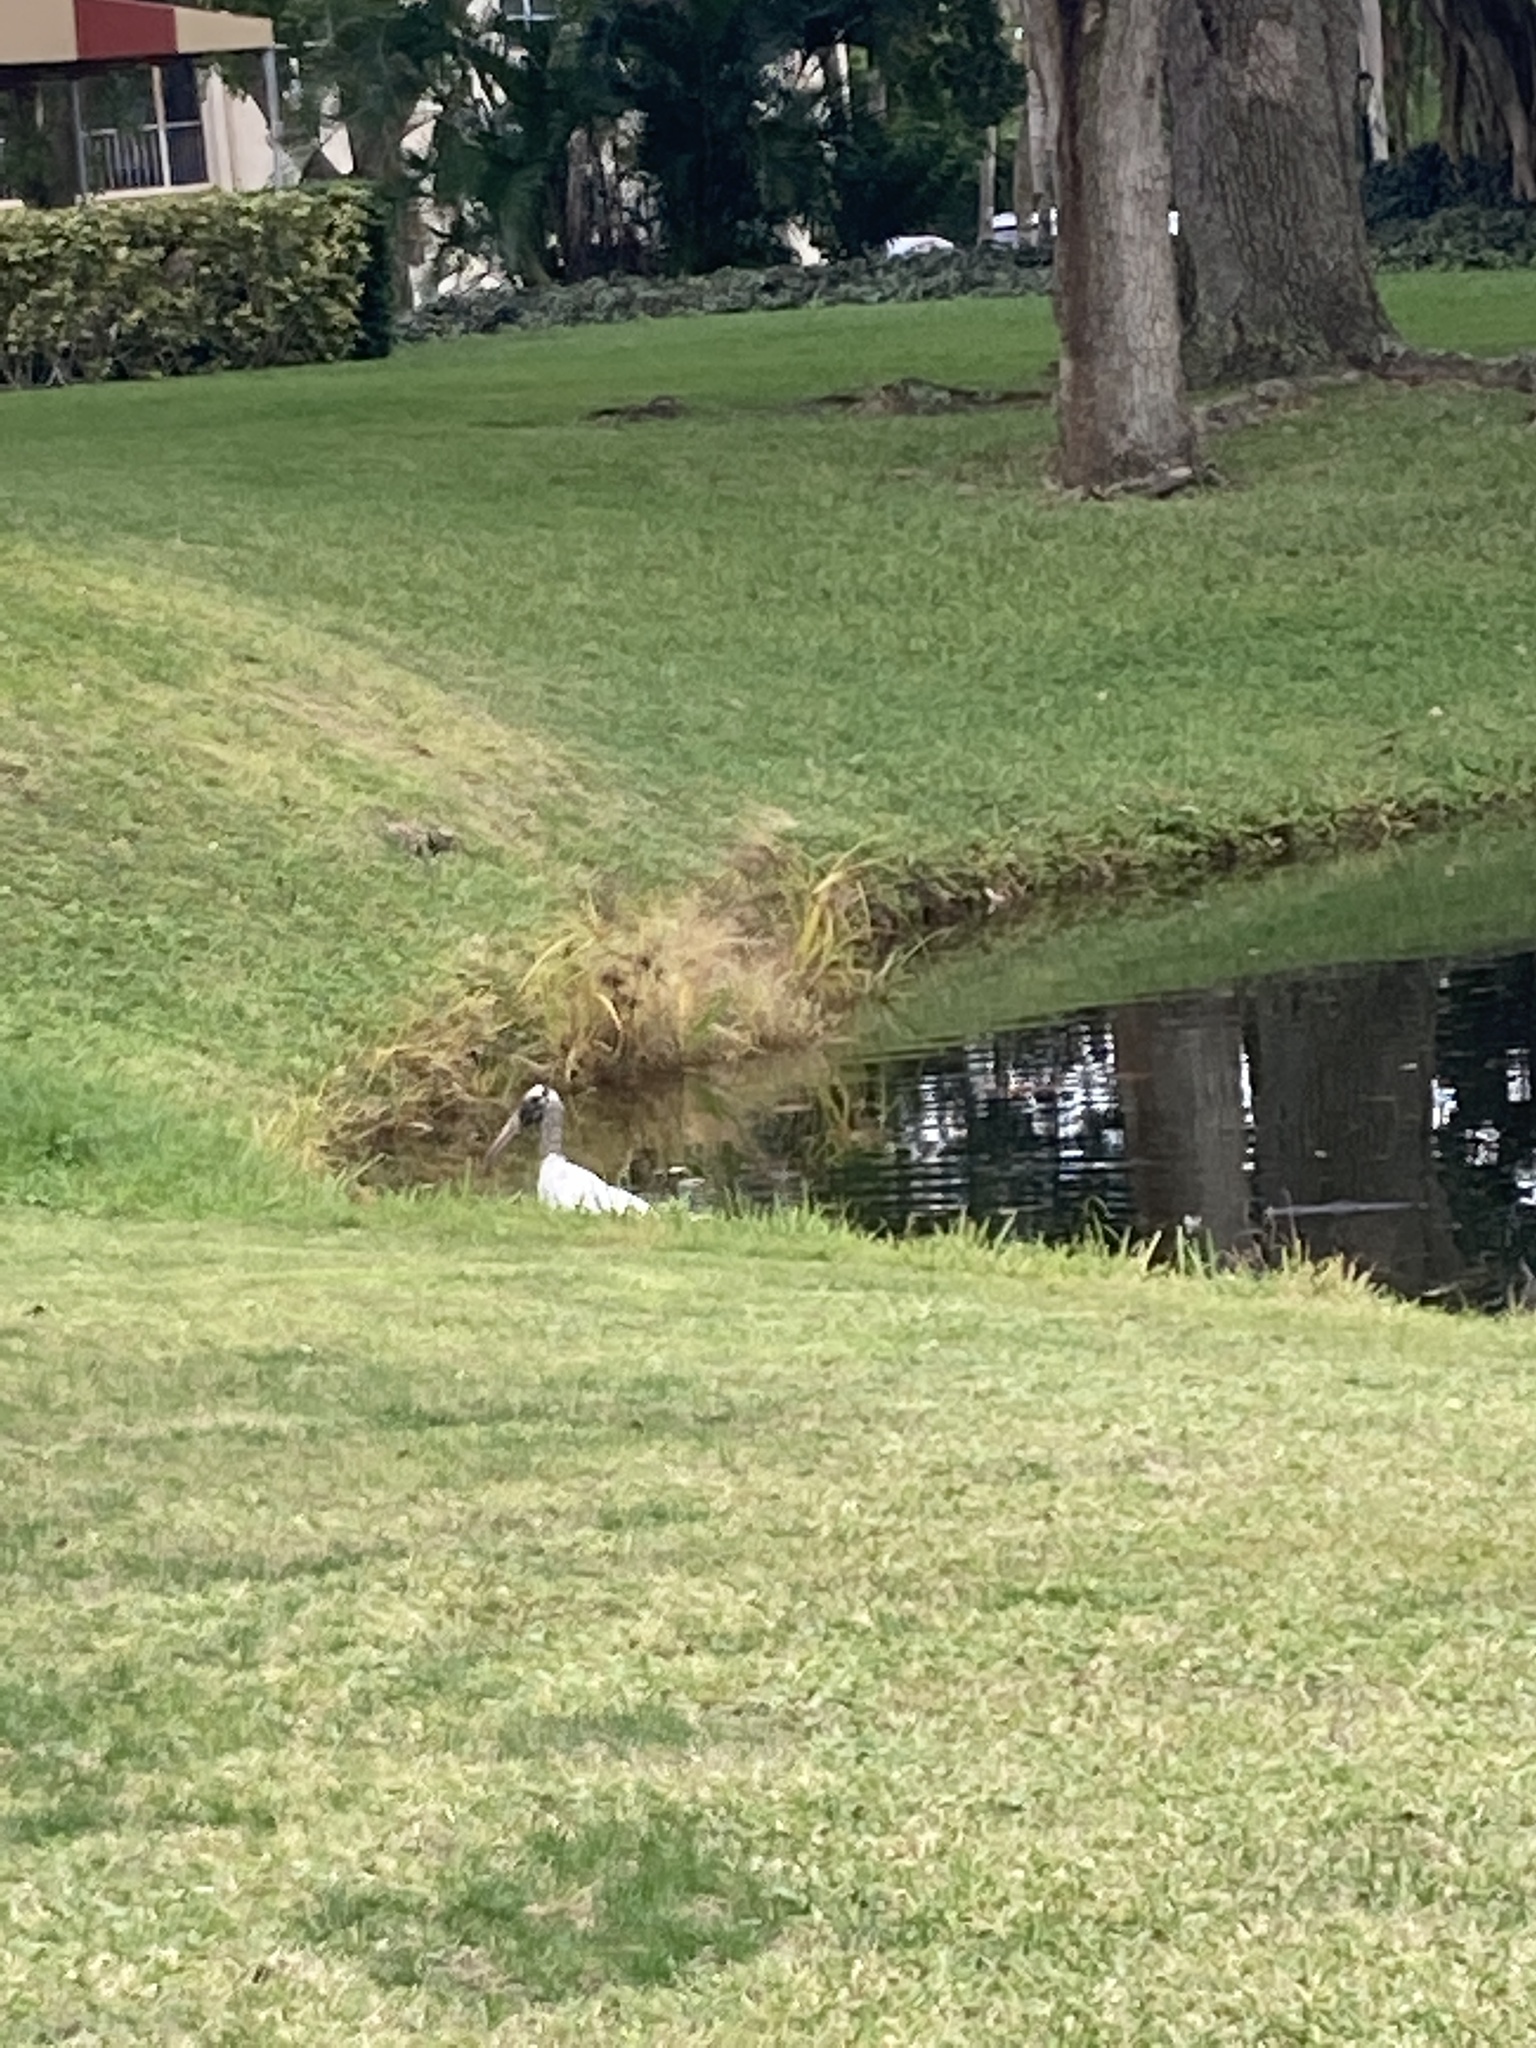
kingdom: Animalia
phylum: Chordata
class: Aves
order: Ciconiiformes
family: Ciconiidae
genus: Mycteria
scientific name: Mycteria americana
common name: Wood stork
